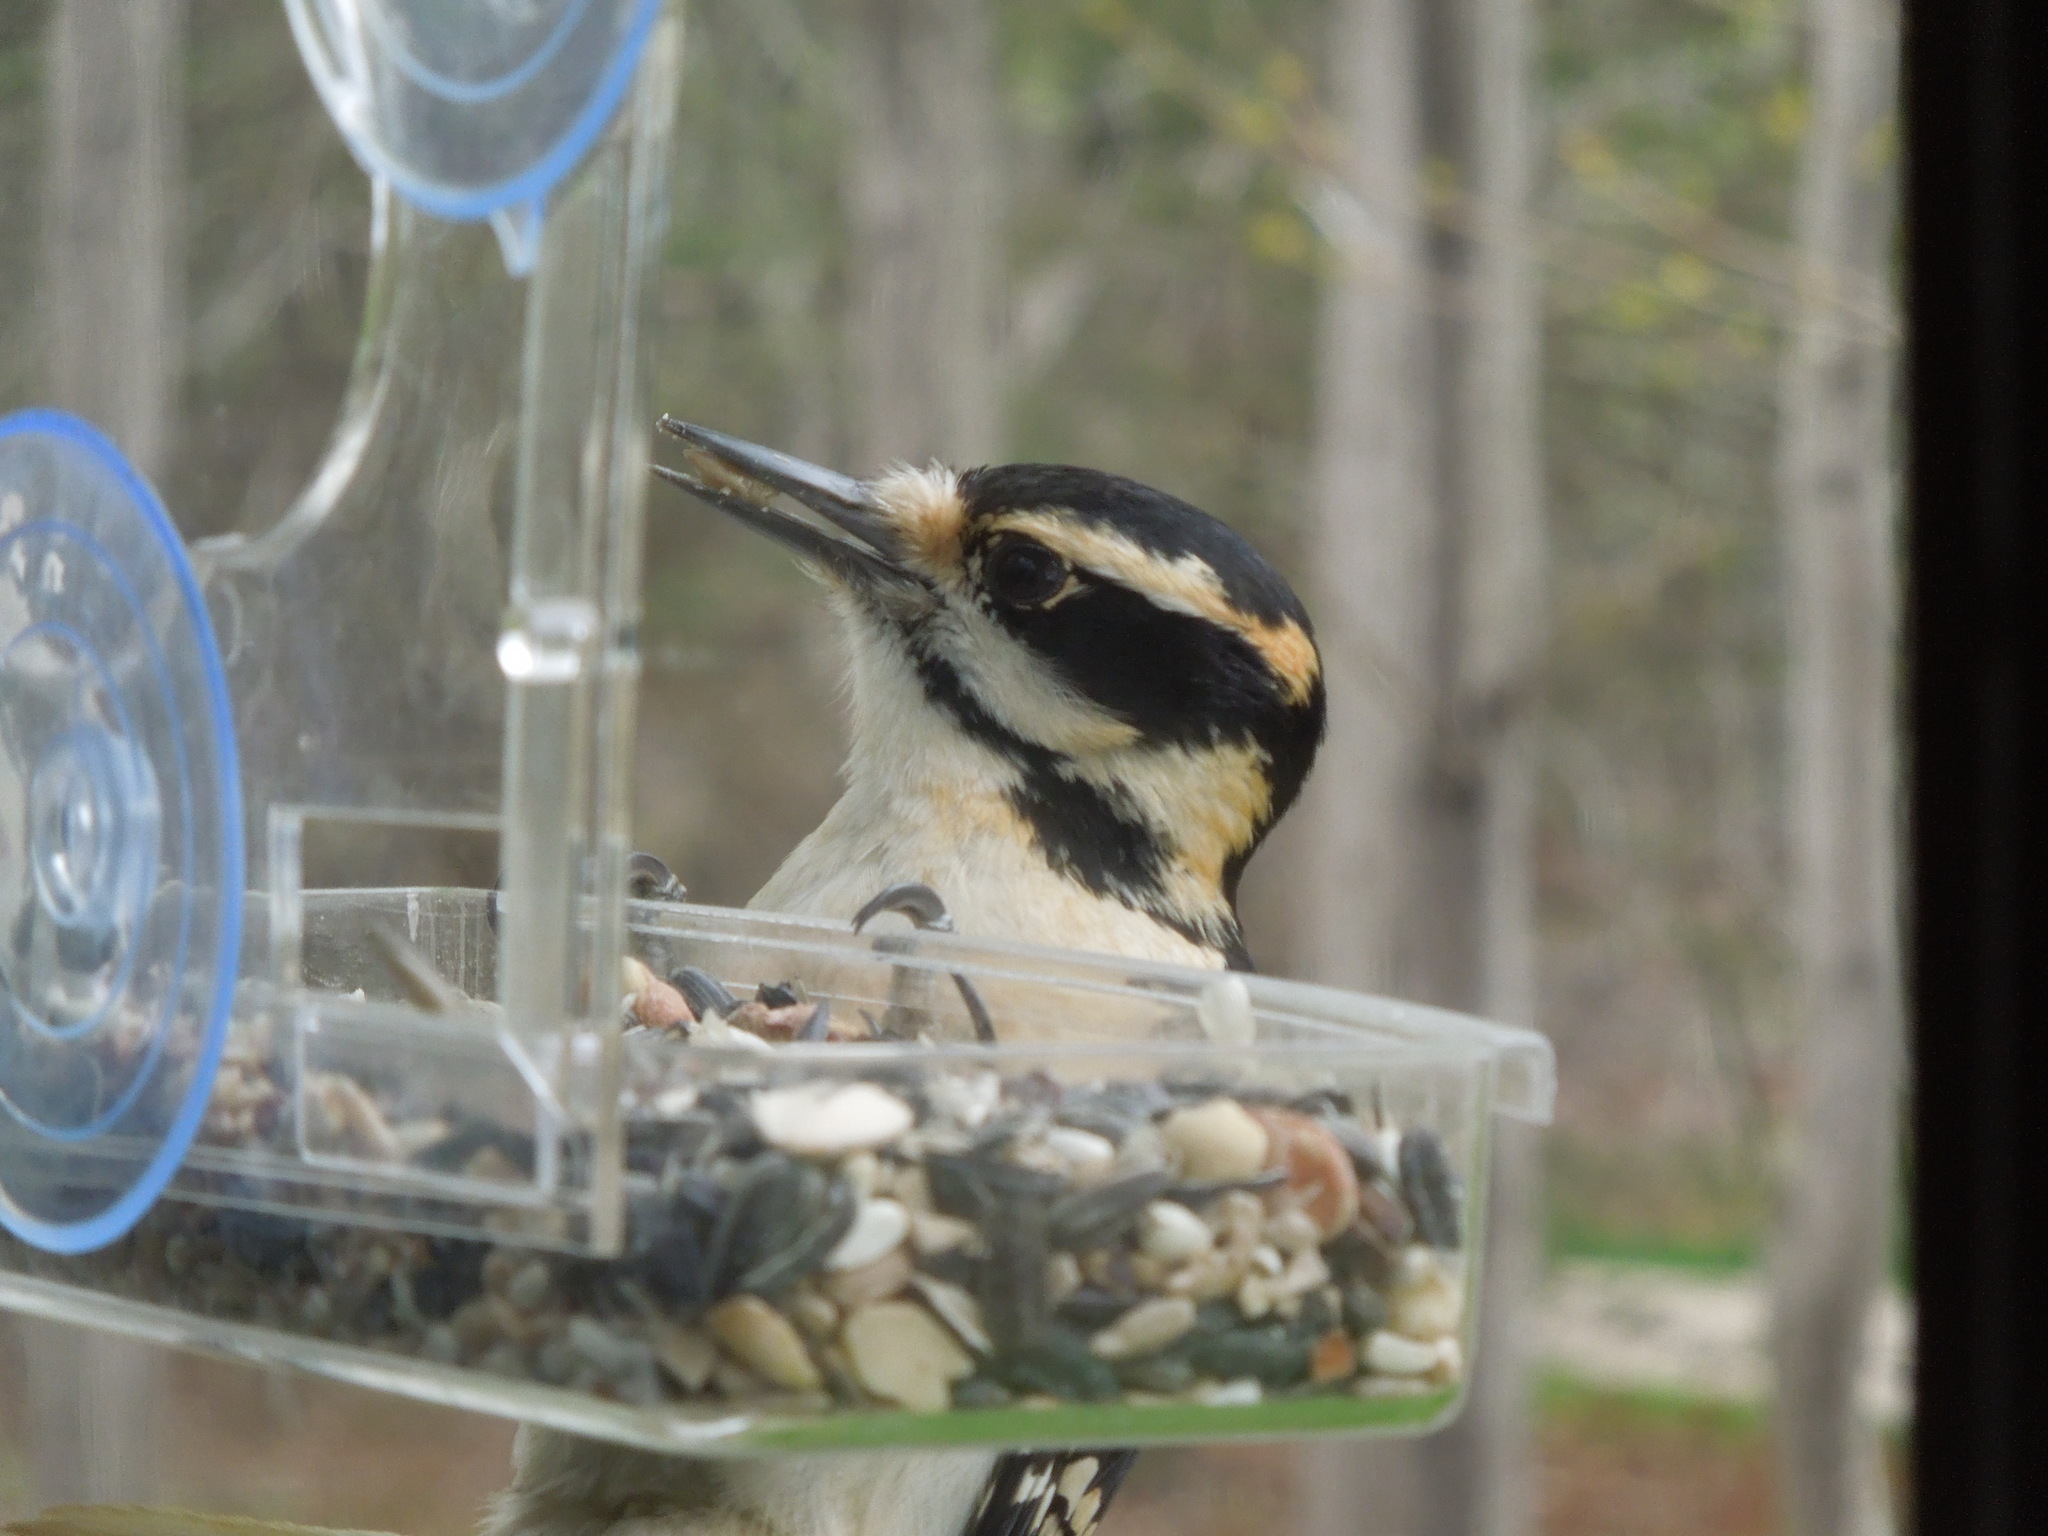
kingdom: Animalia
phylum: Chordata
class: Aves
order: Piciformes
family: Picidae
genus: Leuconotopicus
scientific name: Leuconotopicus villosus
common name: Hairy woodpecker
